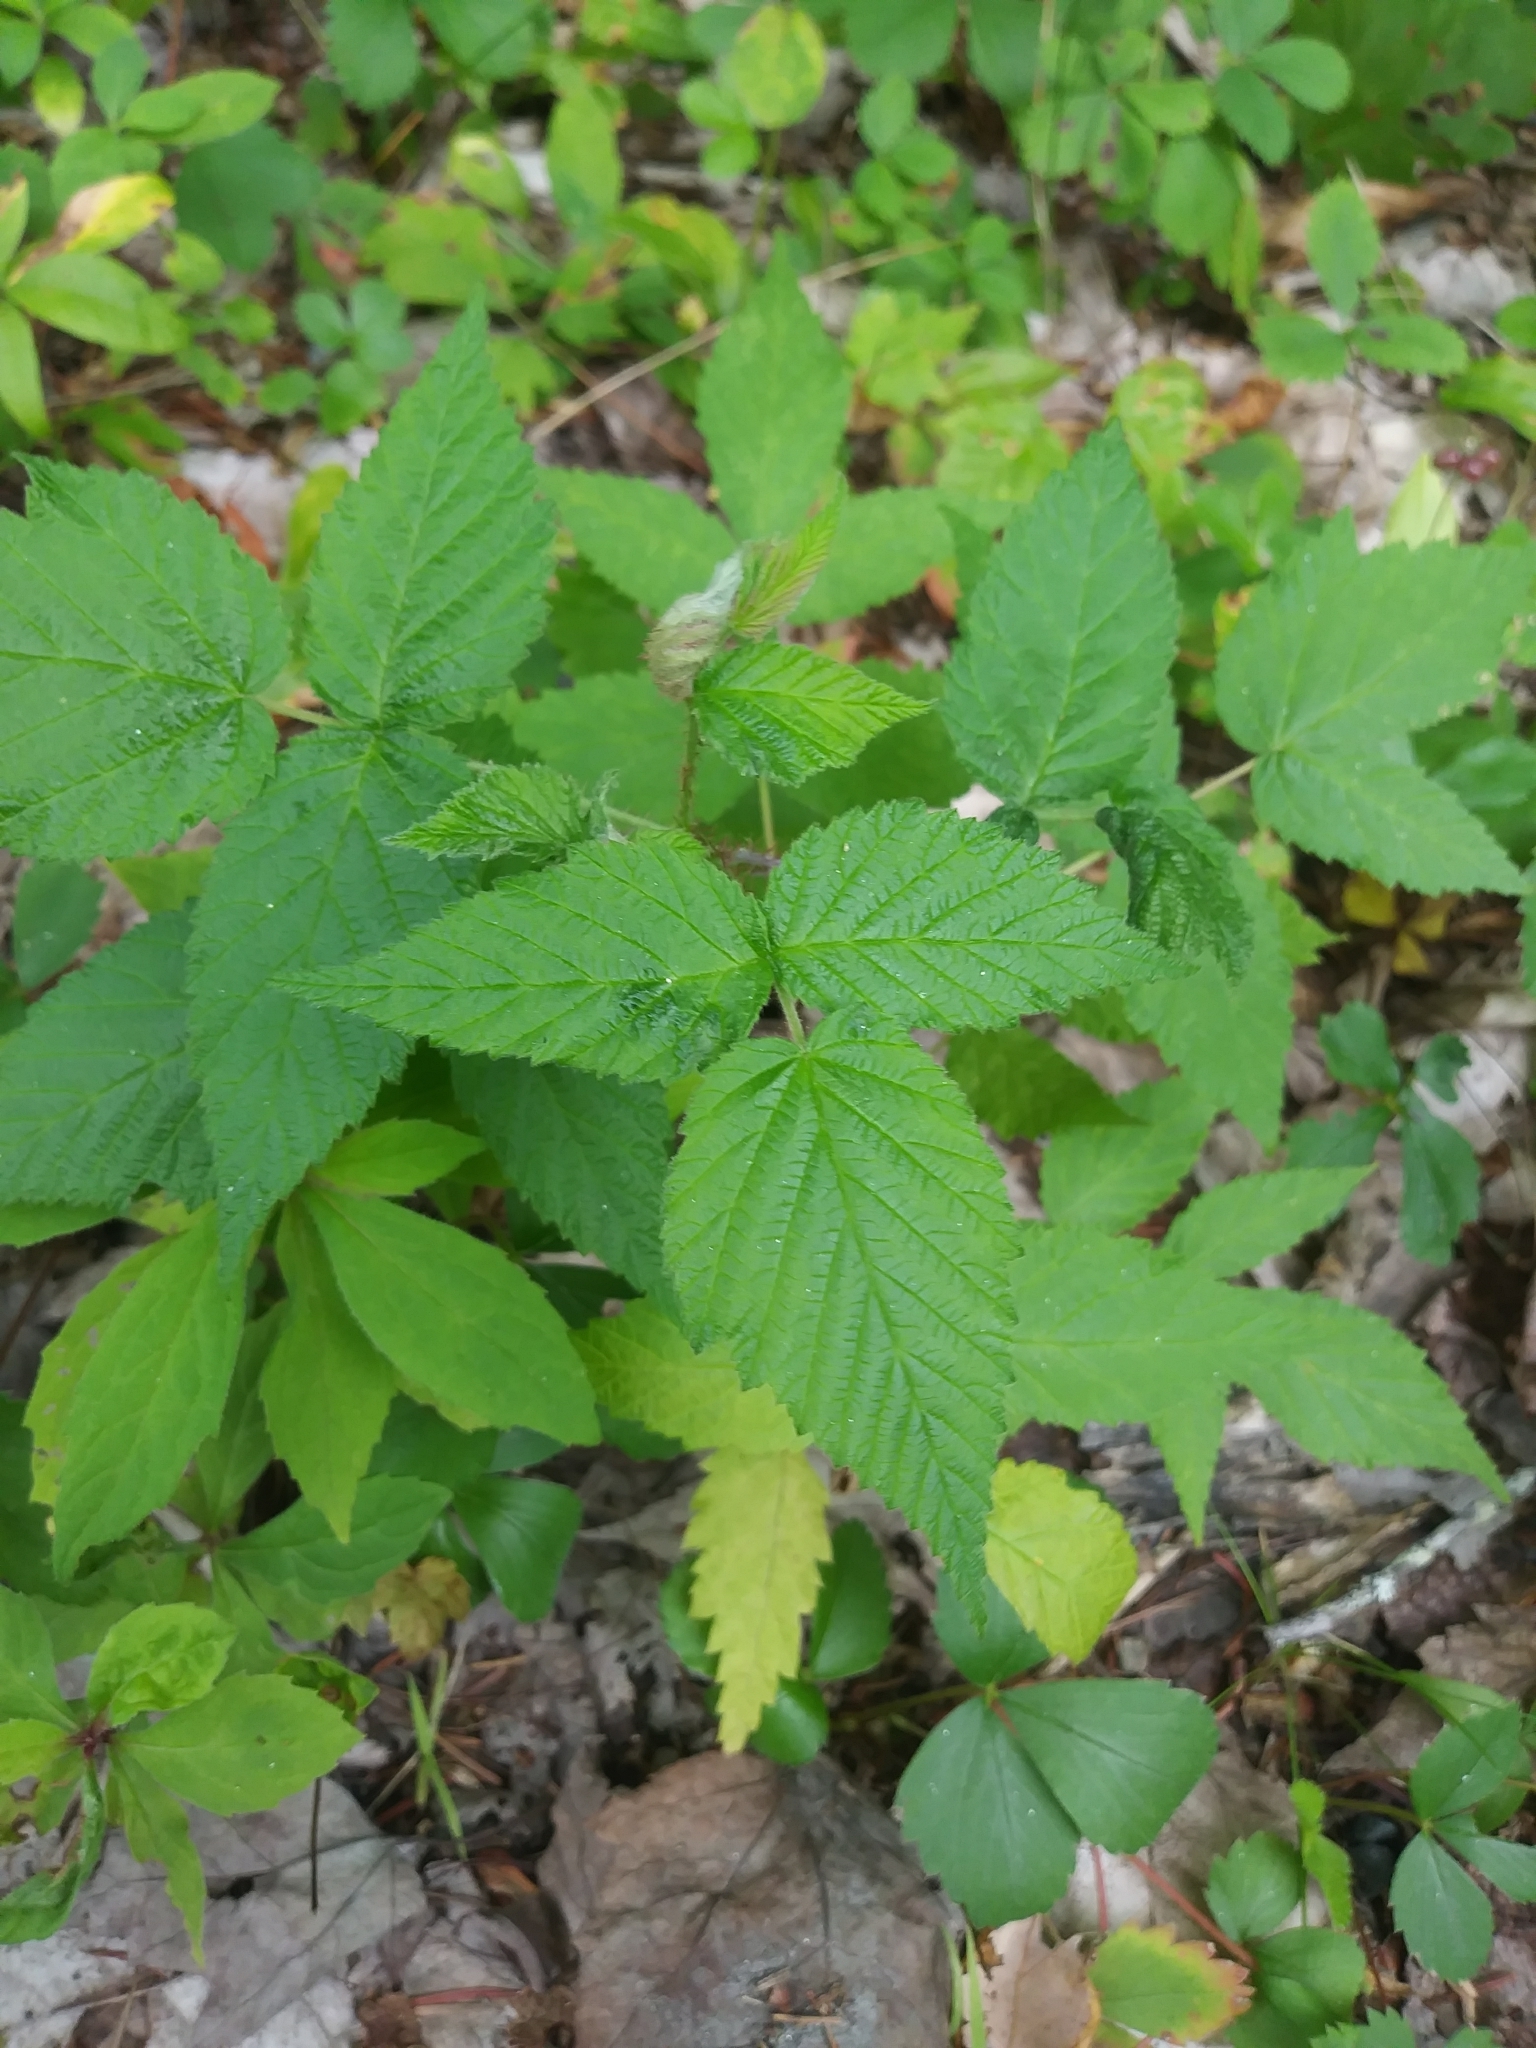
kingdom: Plantae
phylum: Tracheophyta
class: Magnoliopsida
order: Rosales
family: Rosaceae
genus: Rubus
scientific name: Rubus idaeus
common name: Raspberry
